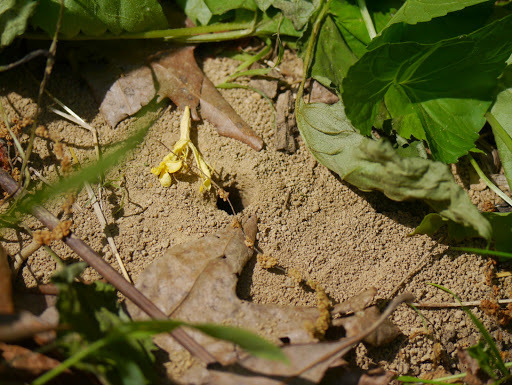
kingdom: Animalia
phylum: Arthropoda
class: Insecta
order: Hymenoptera
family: Colletidae
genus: Colletes
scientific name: Colletes thoracicus
